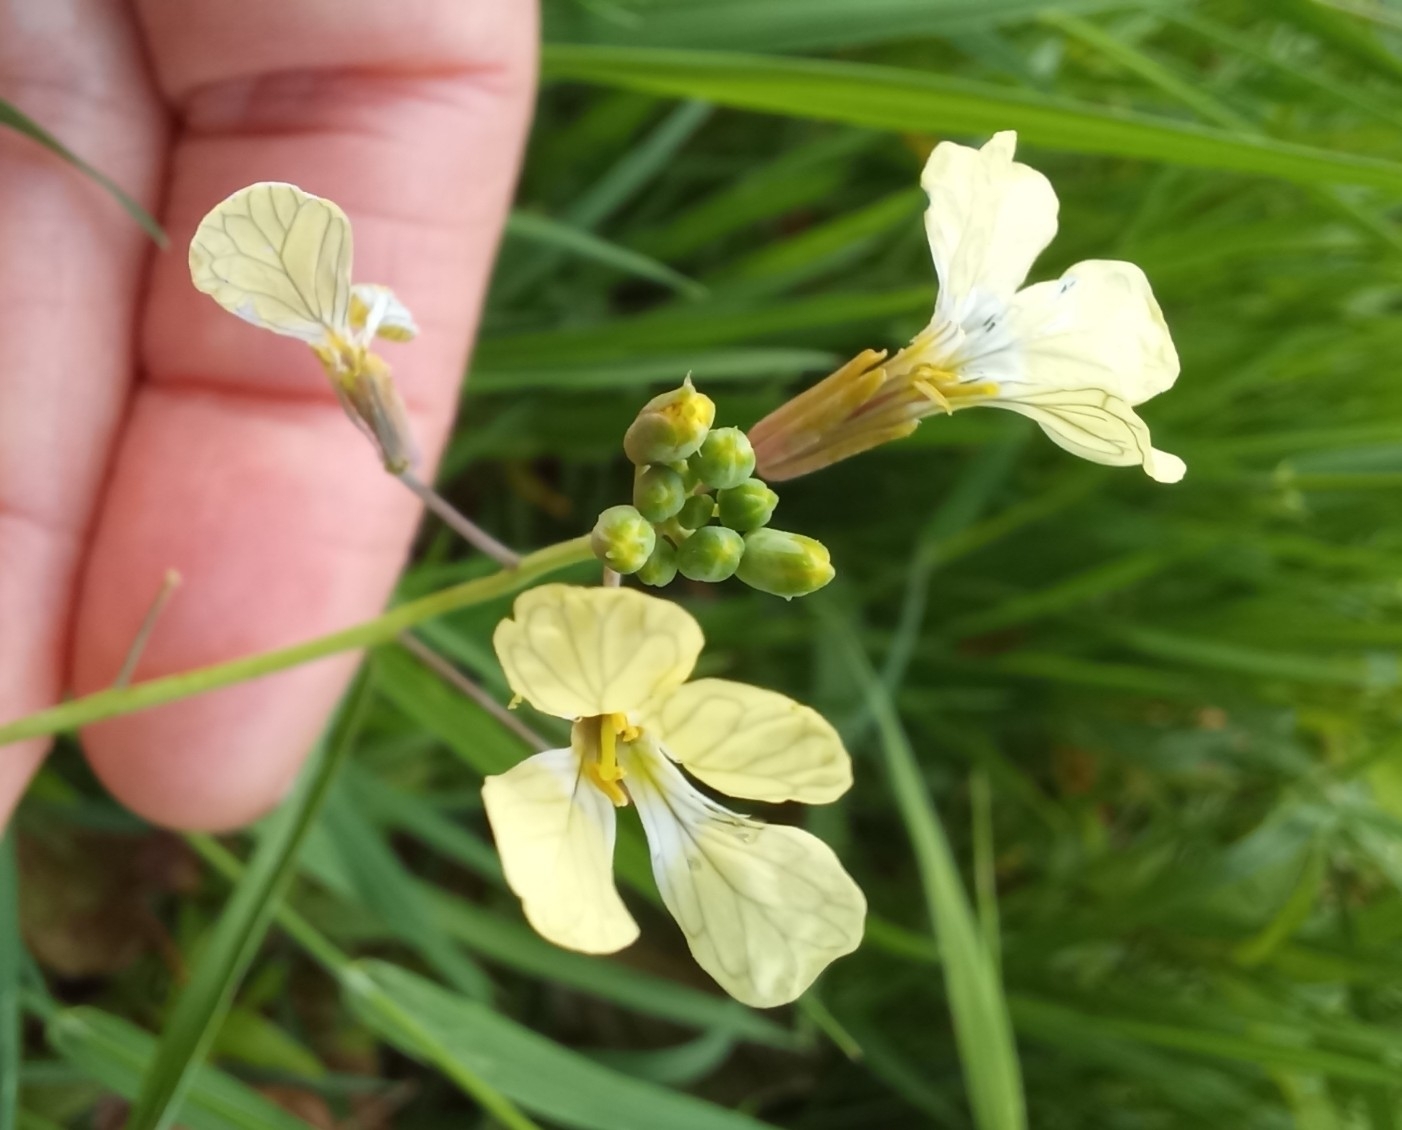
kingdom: Plantae
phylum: Tracheophyta
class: Magnoliopsida
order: Brassicales
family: Brassicaceae
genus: Raphanus
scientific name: Raphanus raphanistrum
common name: Wild radish
